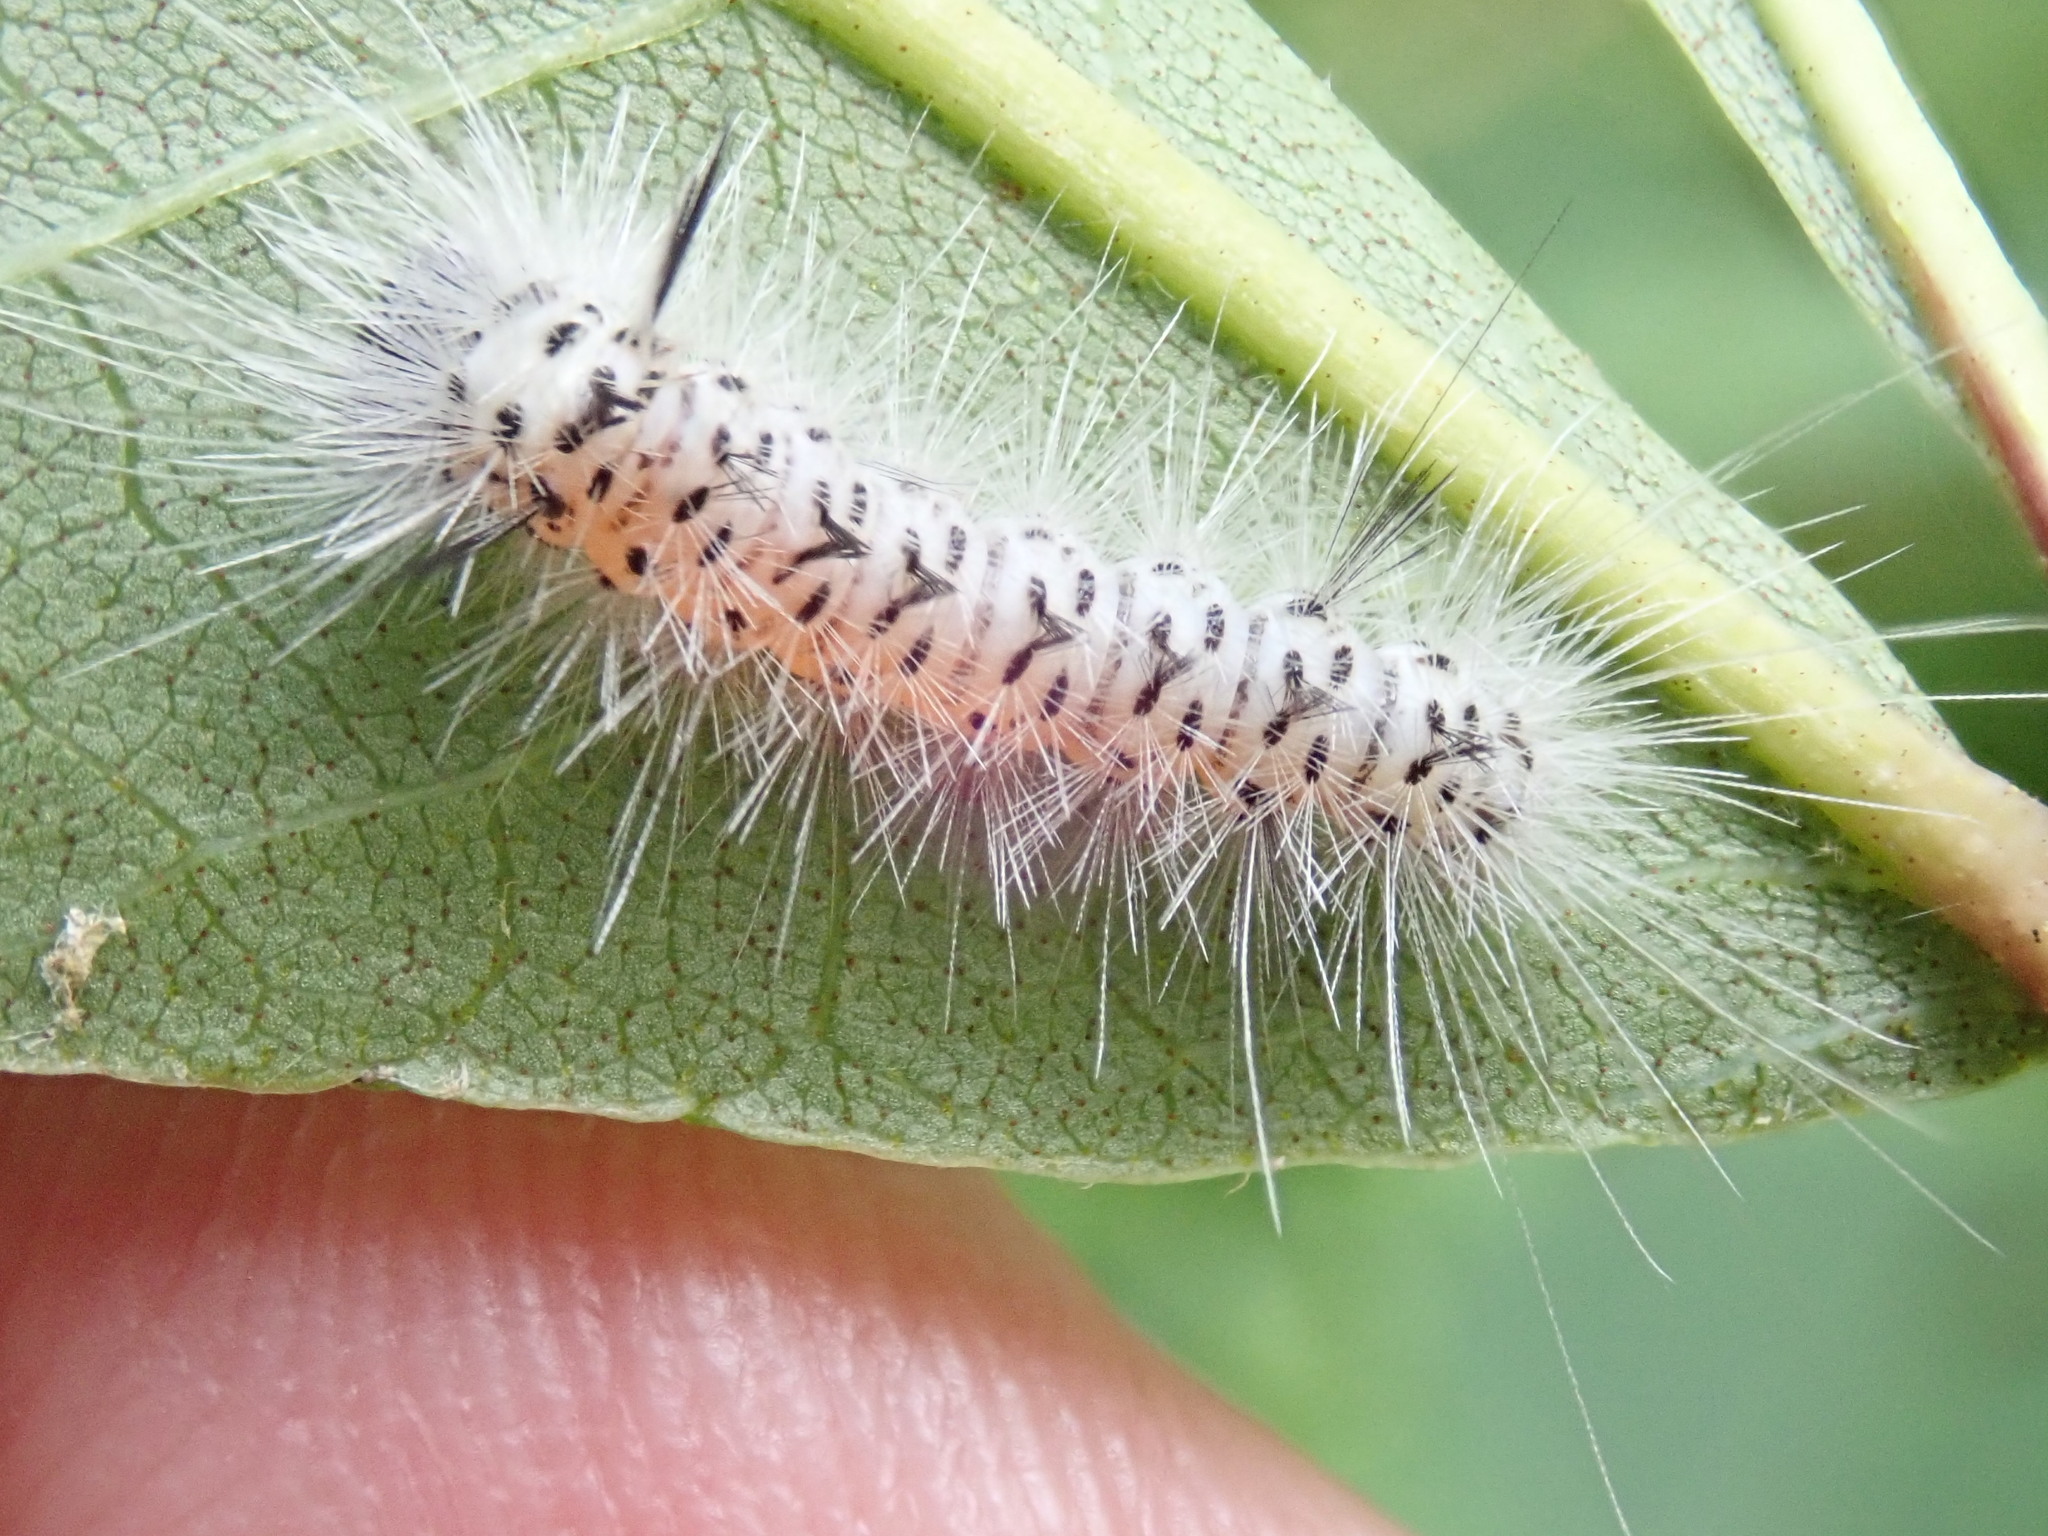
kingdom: Animalia
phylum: Arthropoda
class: Insecta
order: Lepidoptera
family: Erebidae
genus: Lophocampa
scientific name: Lophocampa caryae
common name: Hickory tussock moth
